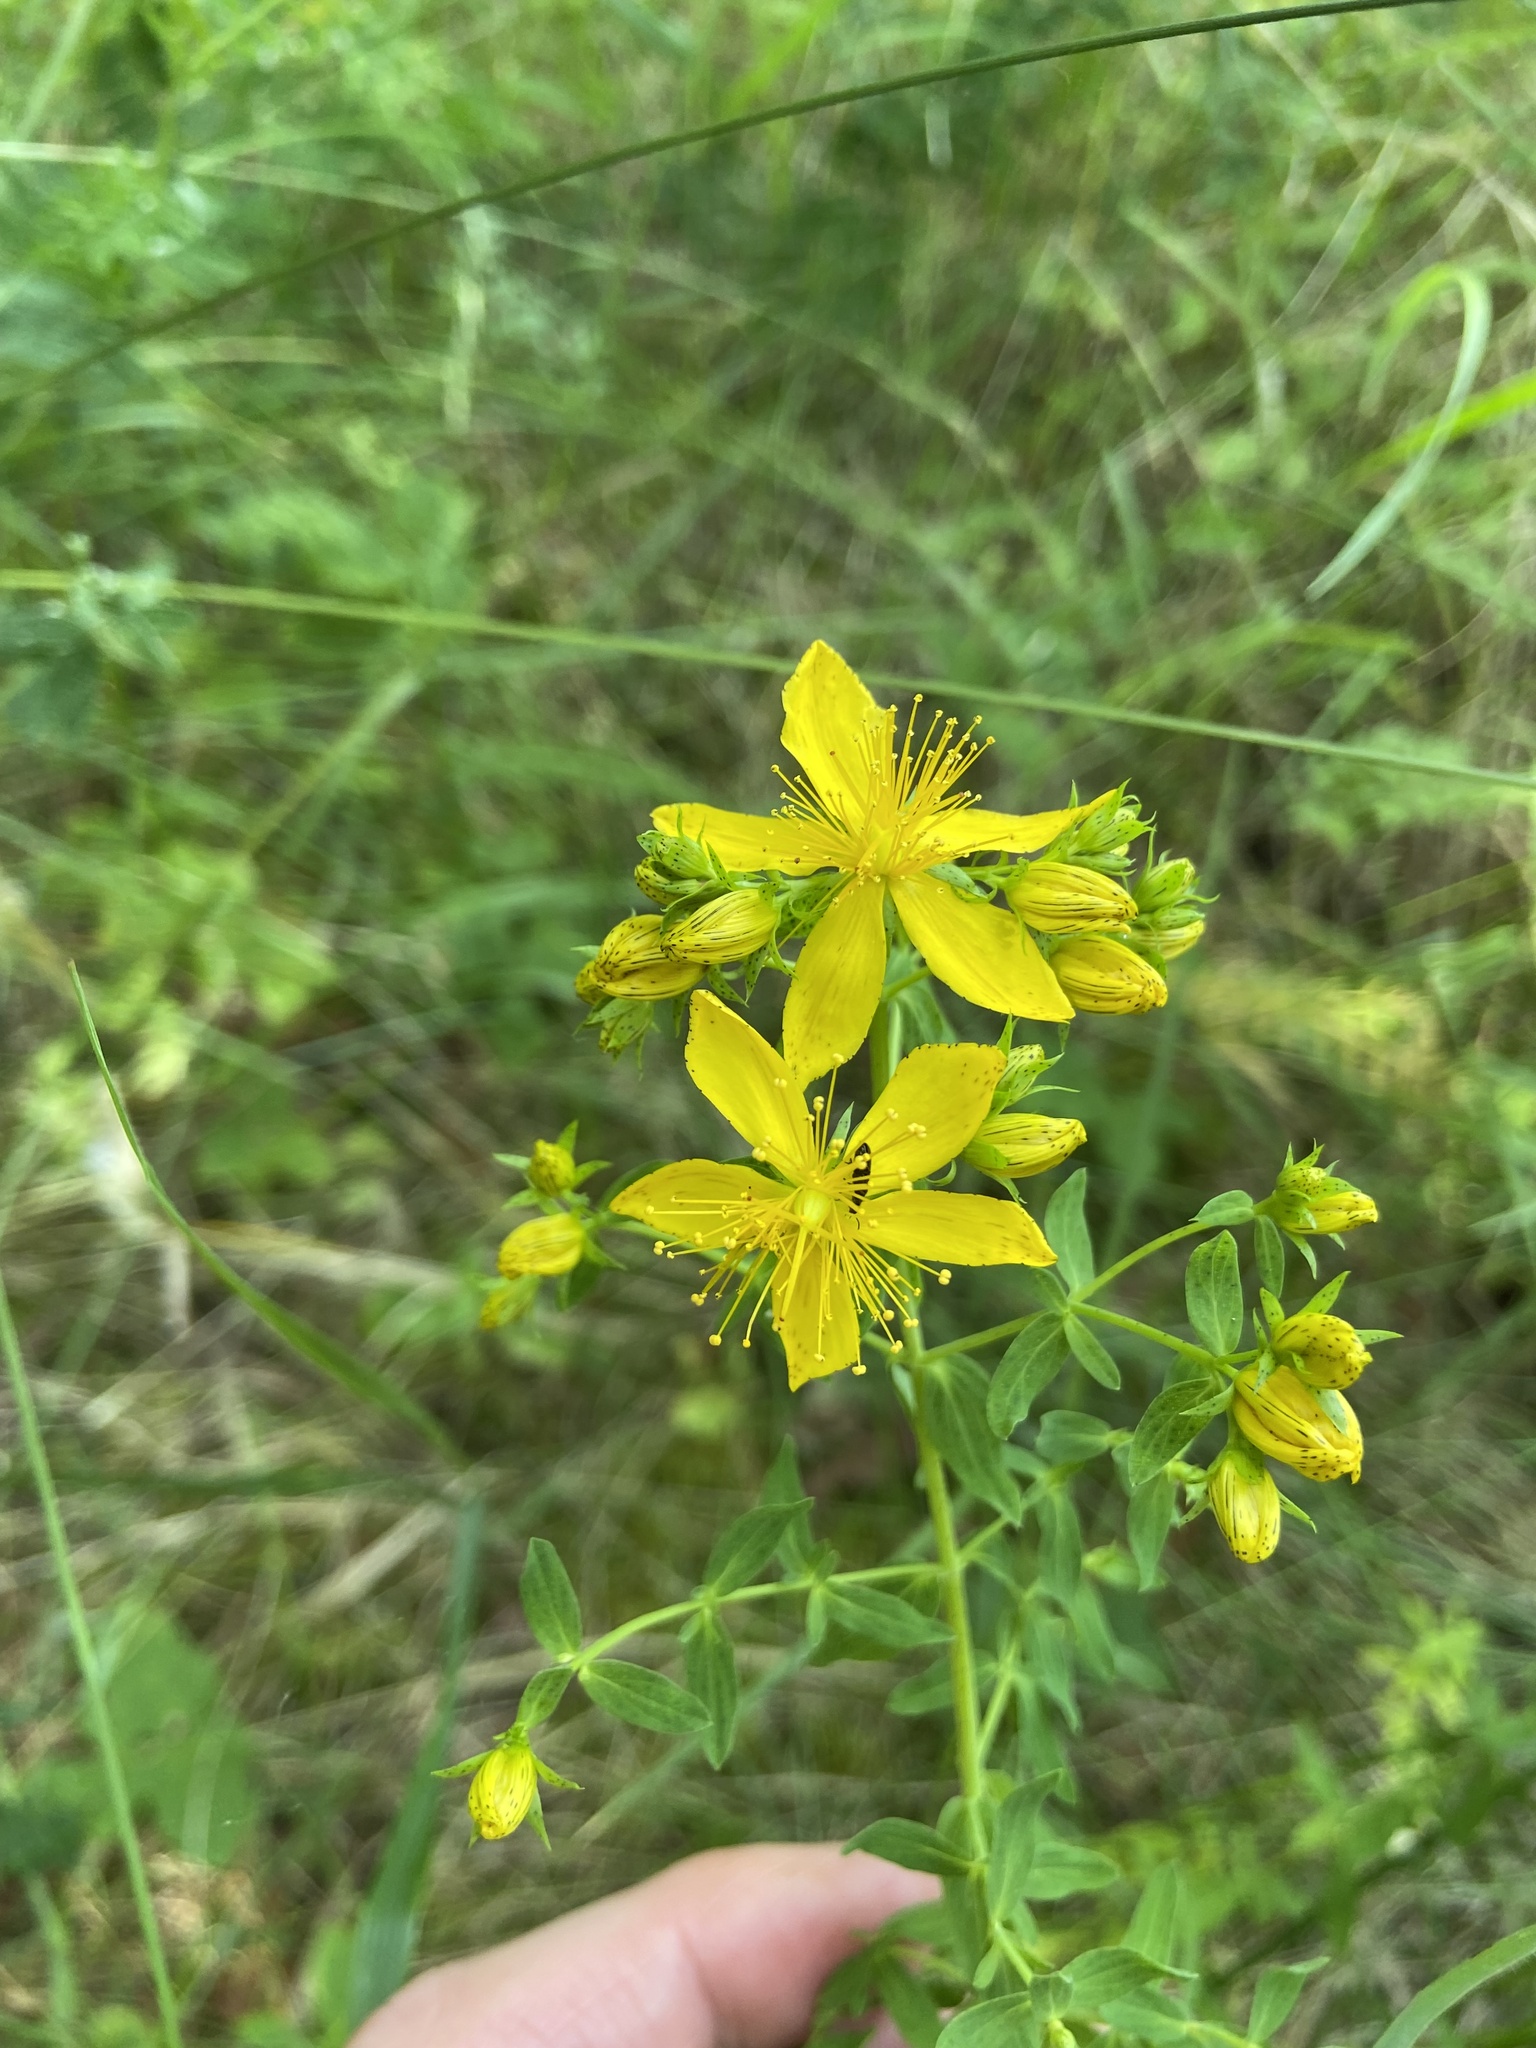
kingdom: Plantae
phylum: Tracheophyta
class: Magnoliopsida
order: Malpighiales
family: Hypericaceae
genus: Hypericum
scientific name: Hypericum perforatum
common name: Common st. johnswort
